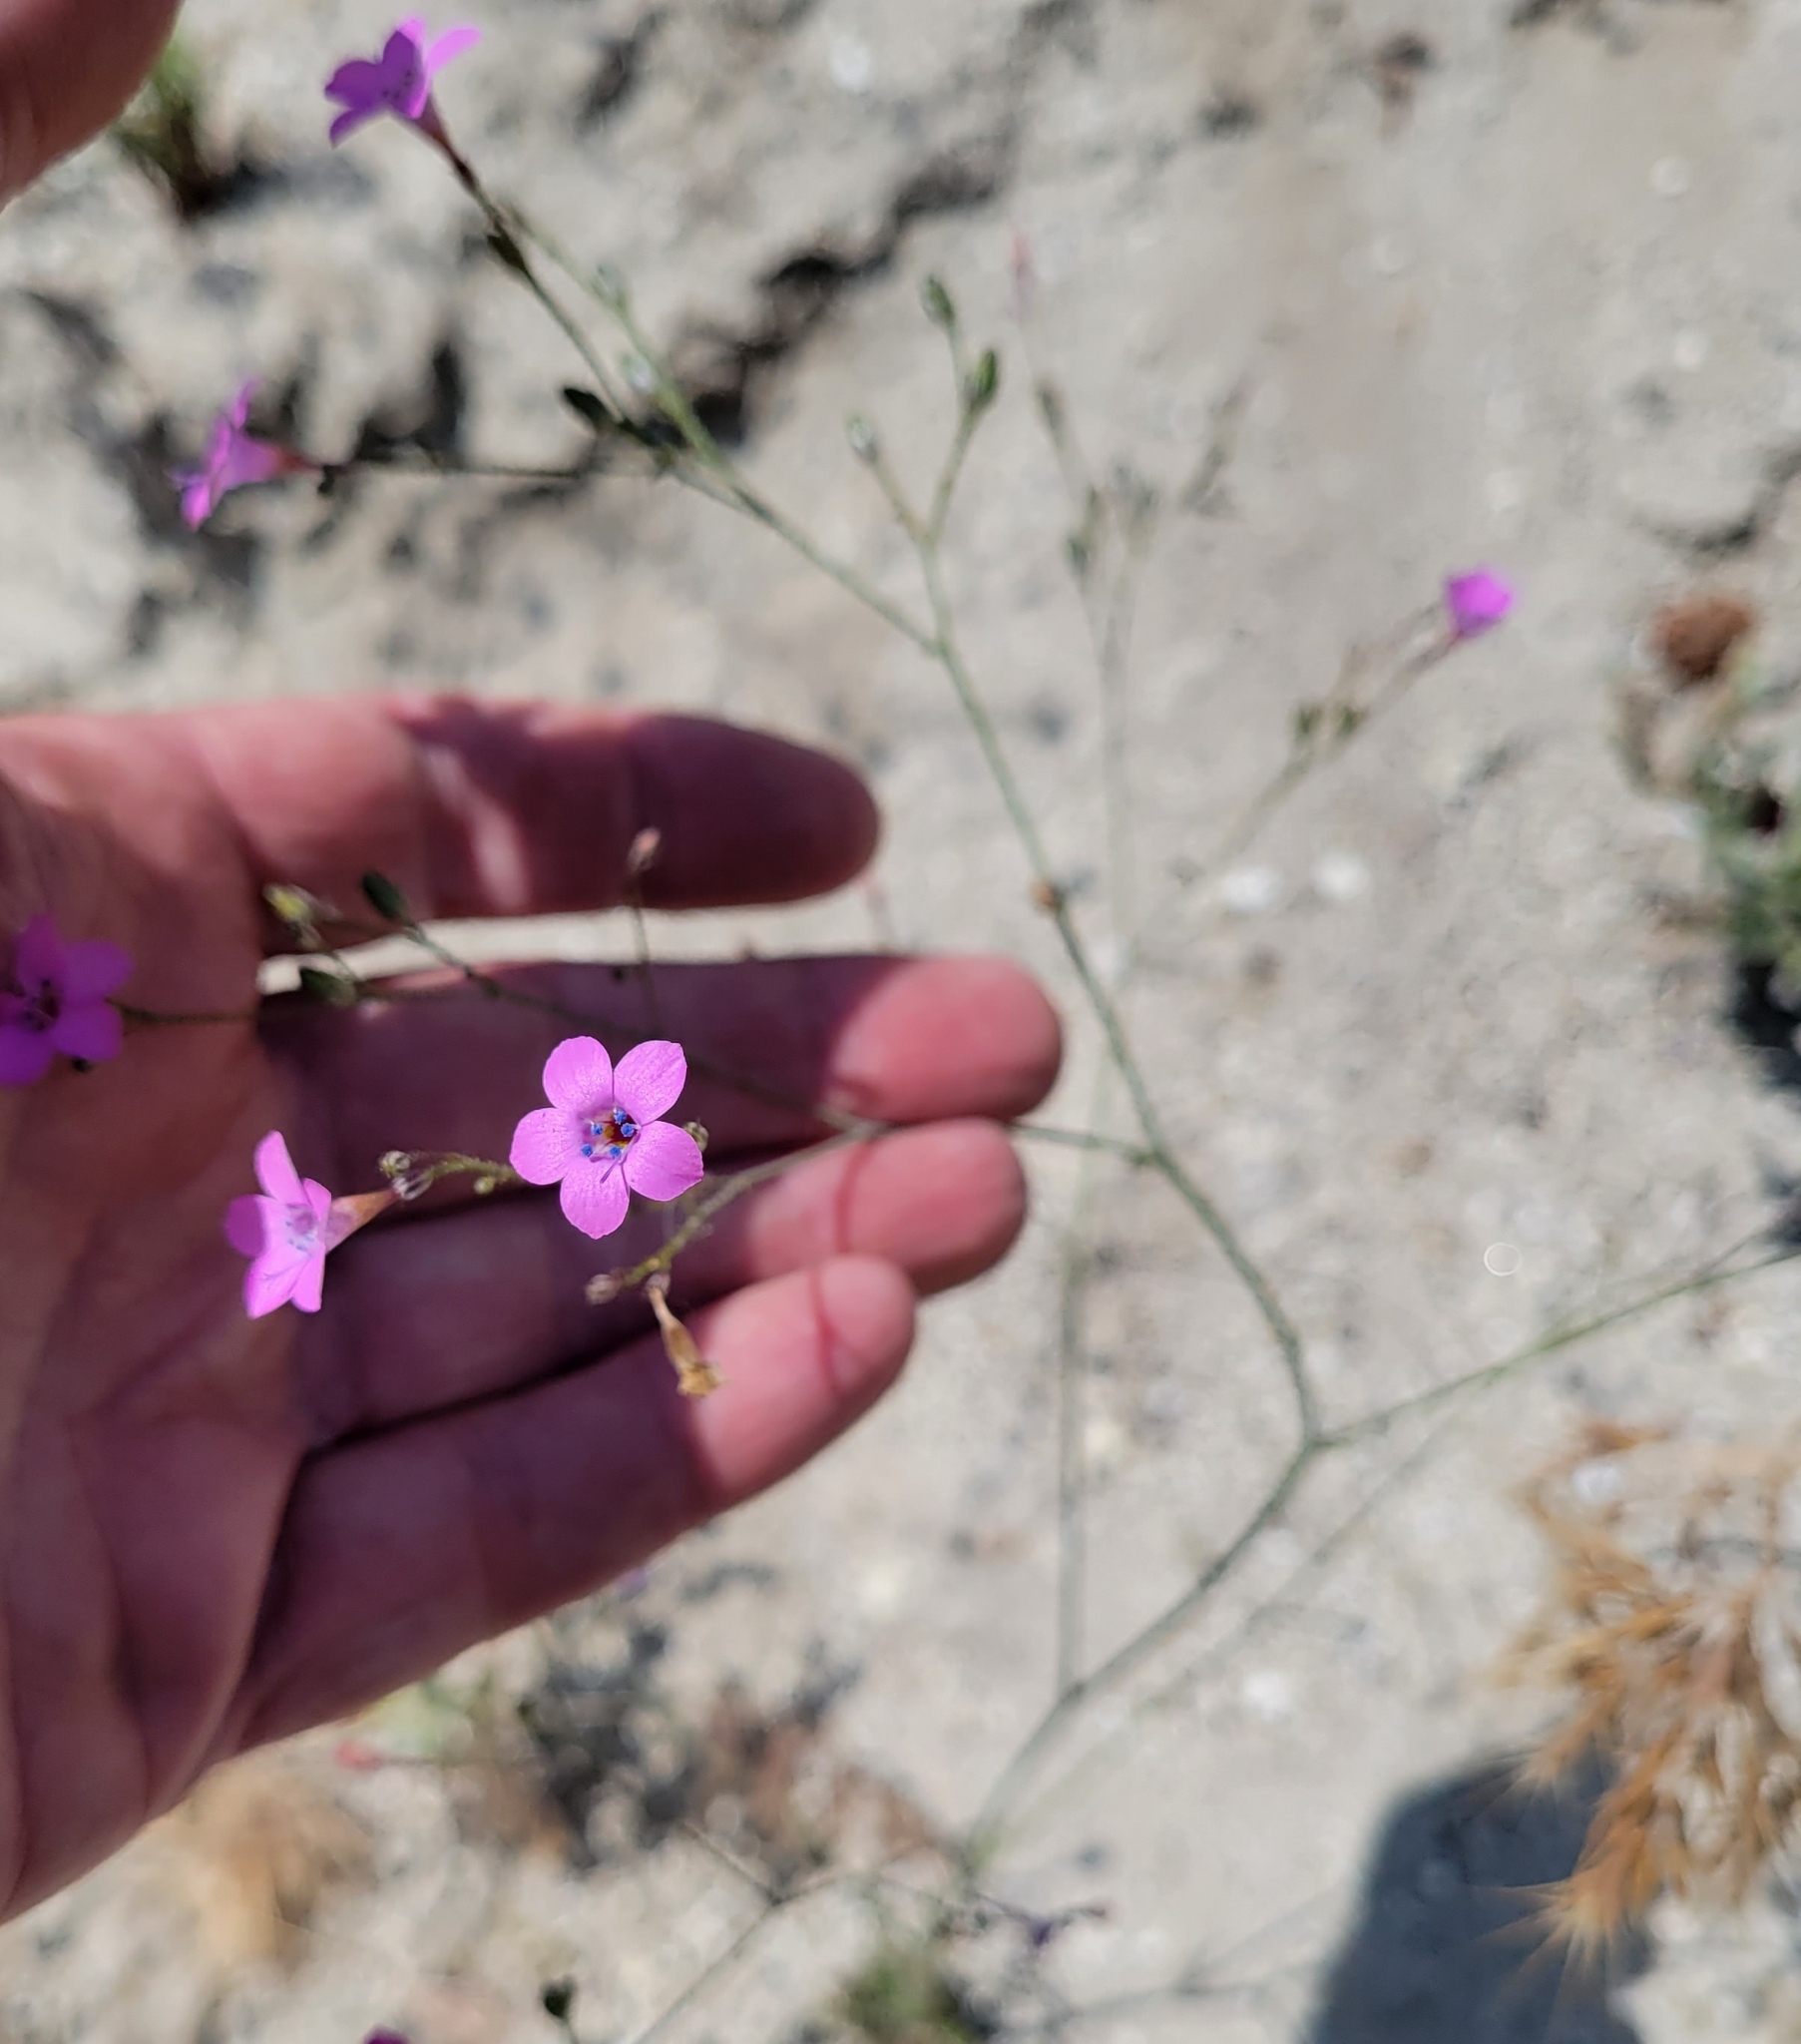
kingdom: Plantae
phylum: Tracheophyta
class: Magnoliopsida
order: Ericales
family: Polemoniaceae
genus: Saltugilia
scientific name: Saltugilia splendens
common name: Grinnell's gilia
